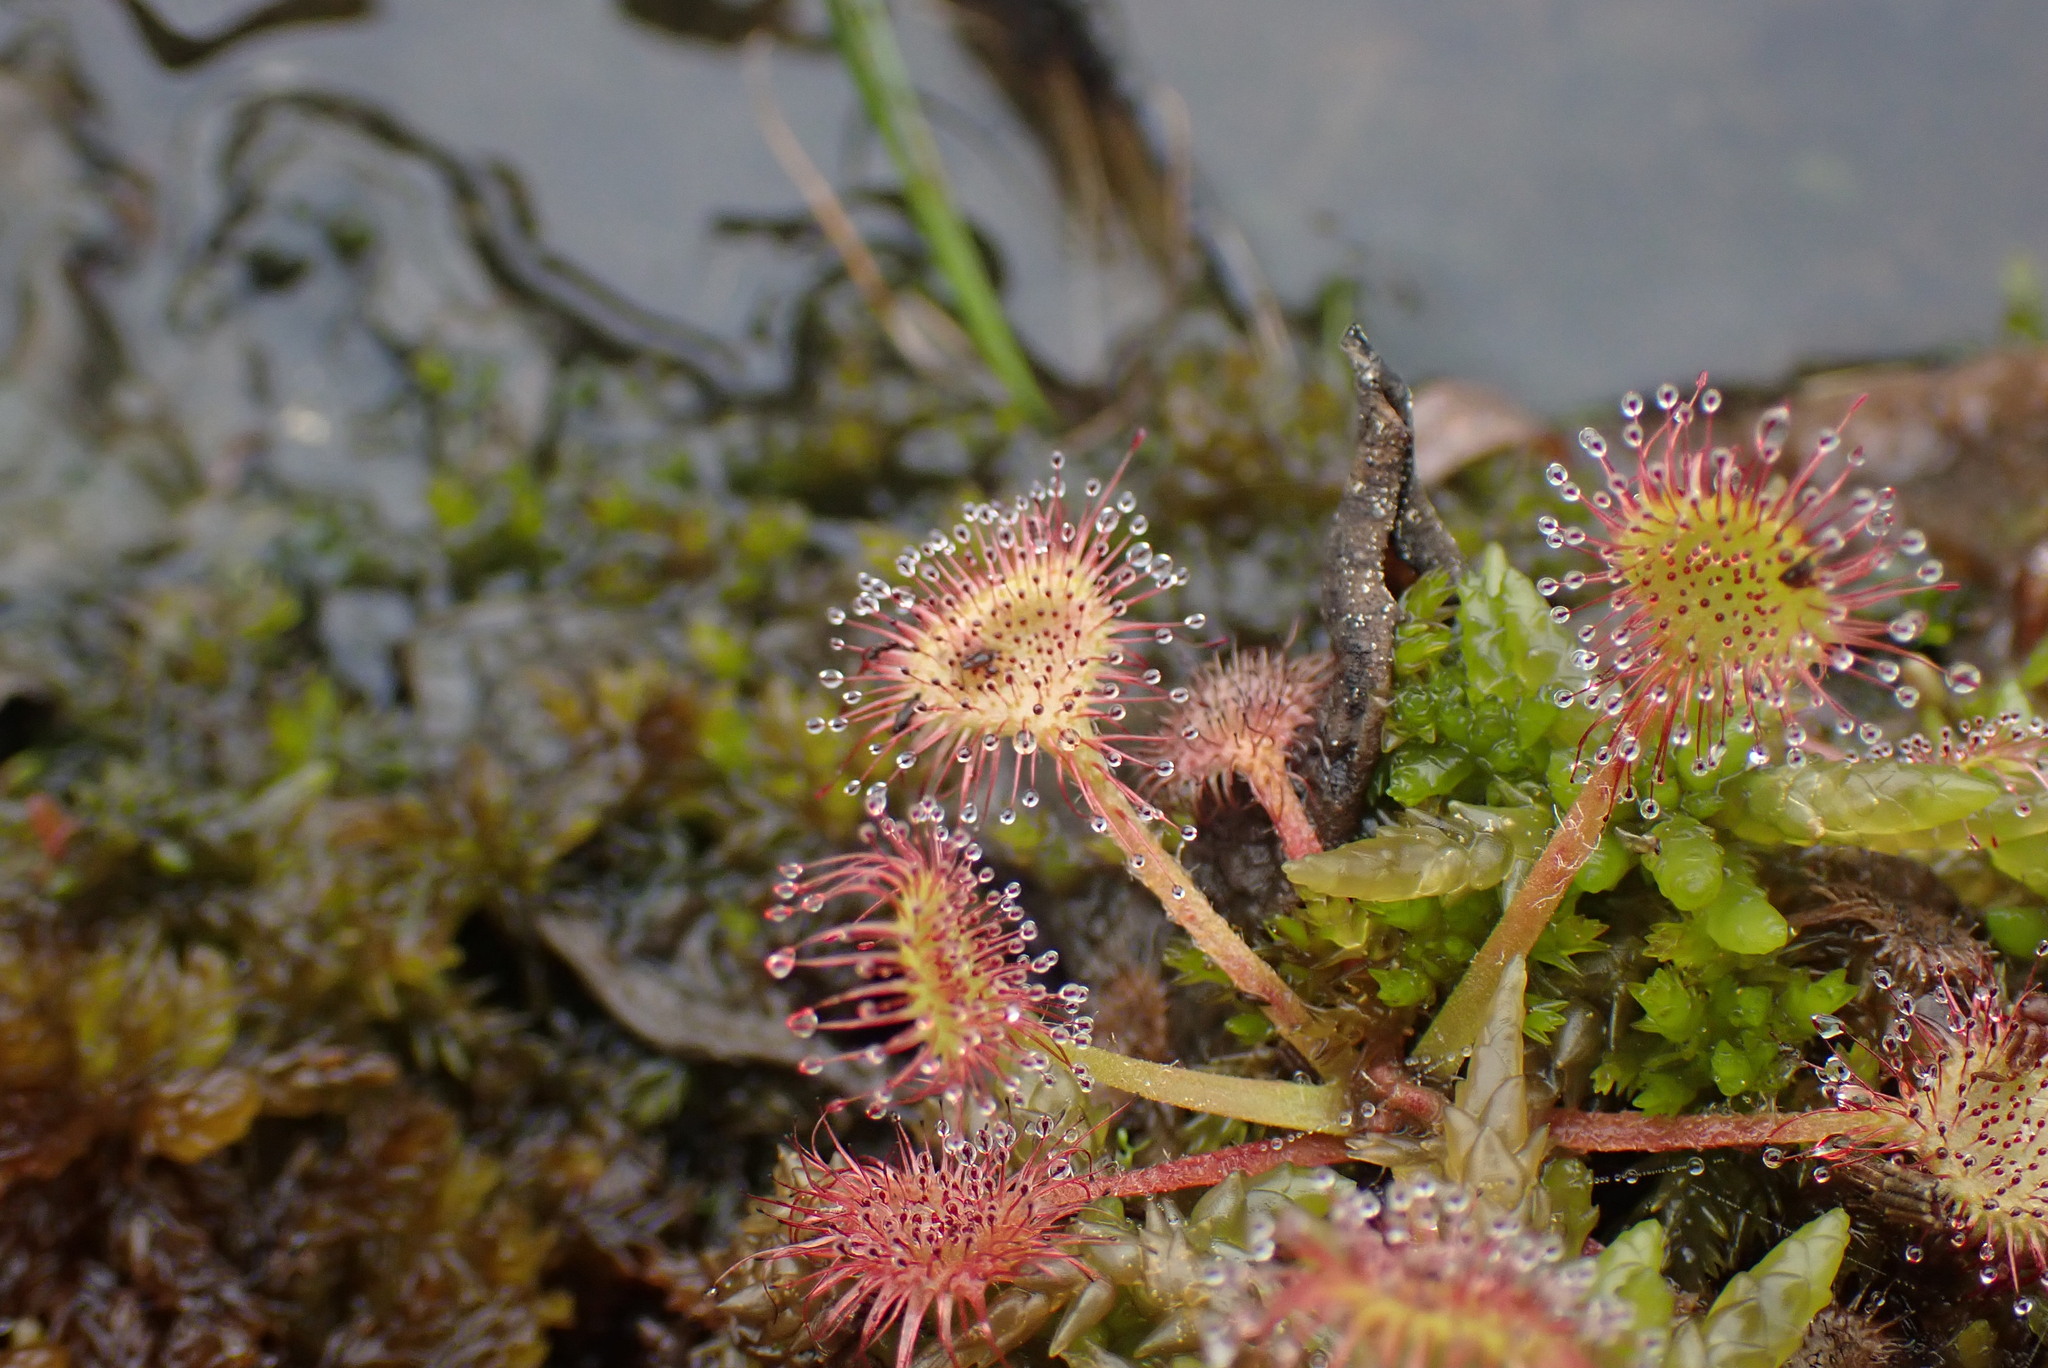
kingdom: Plantae
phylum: Tracheophyta
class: Magnoliopsida
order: Caryophyllales
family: Droseraceae
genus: Drosera
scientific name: Drosera rotundifolia
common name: Round-leaved sundew
